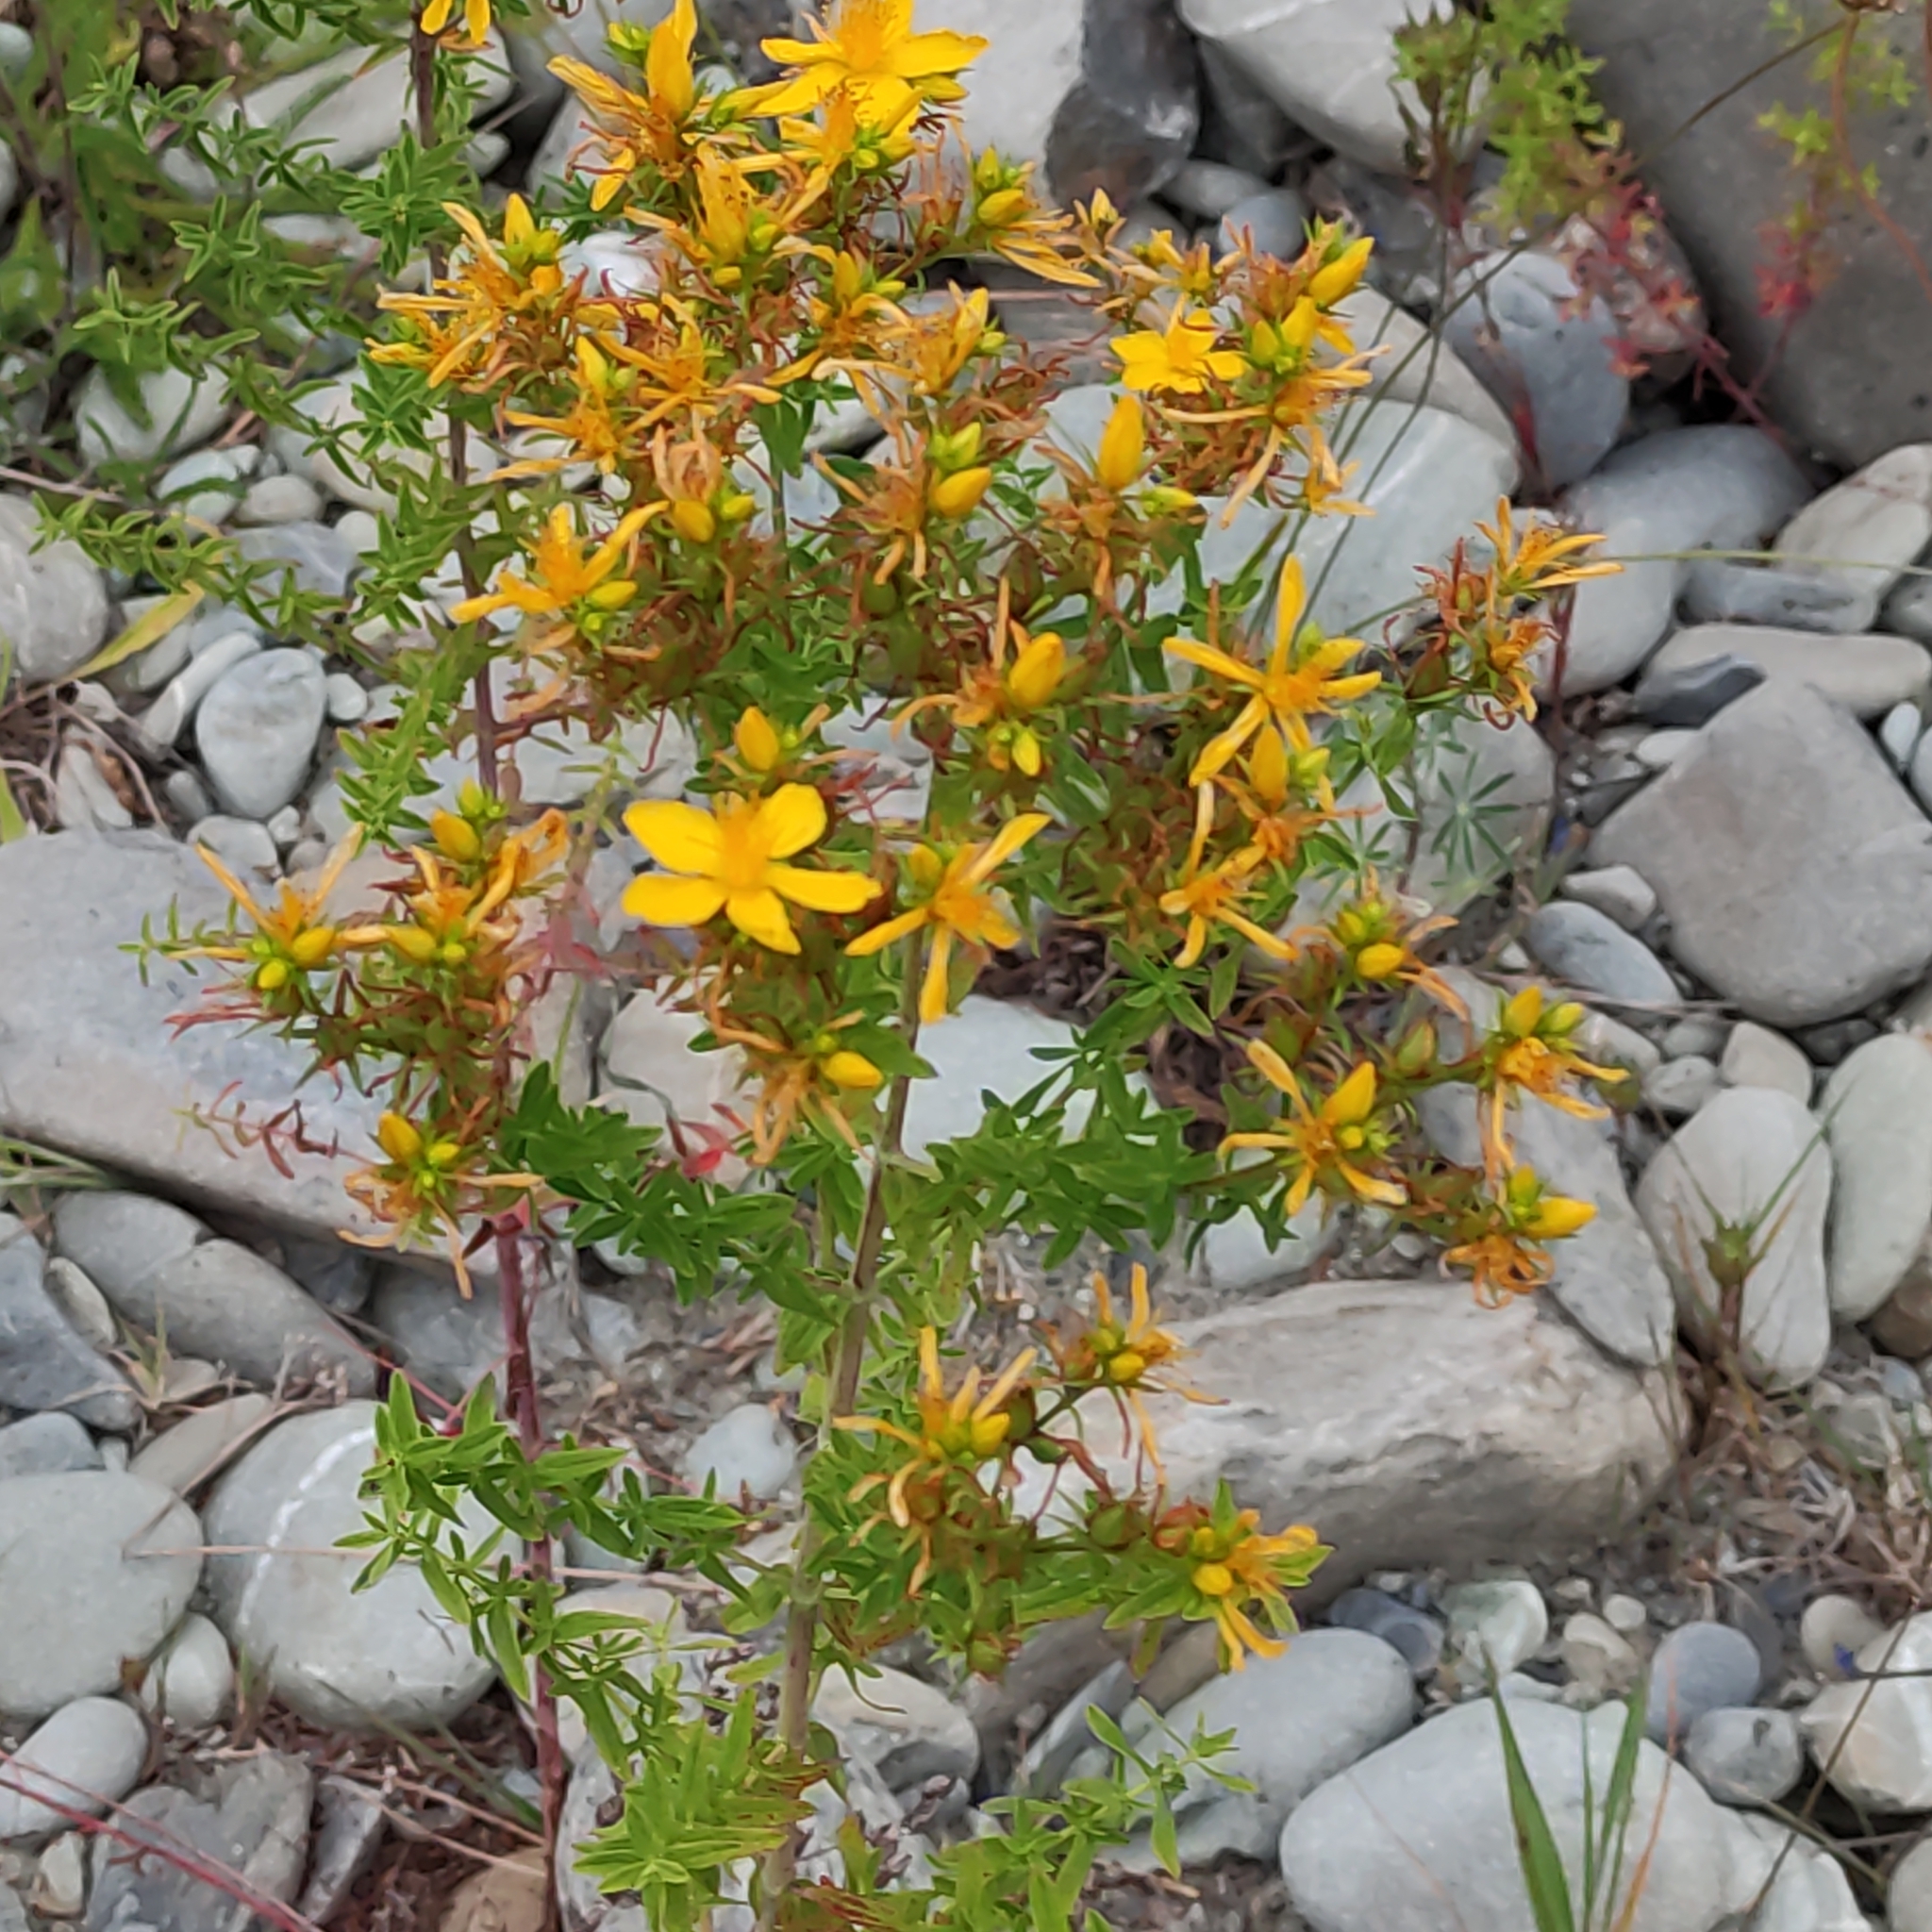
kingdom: Plantae
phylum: Tracheophyta
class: Magnoliopsida
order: Malpighiales
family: Hypericaceae
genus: Hypericum
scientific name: Hypericum perforatum
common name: Common st. johnswort
